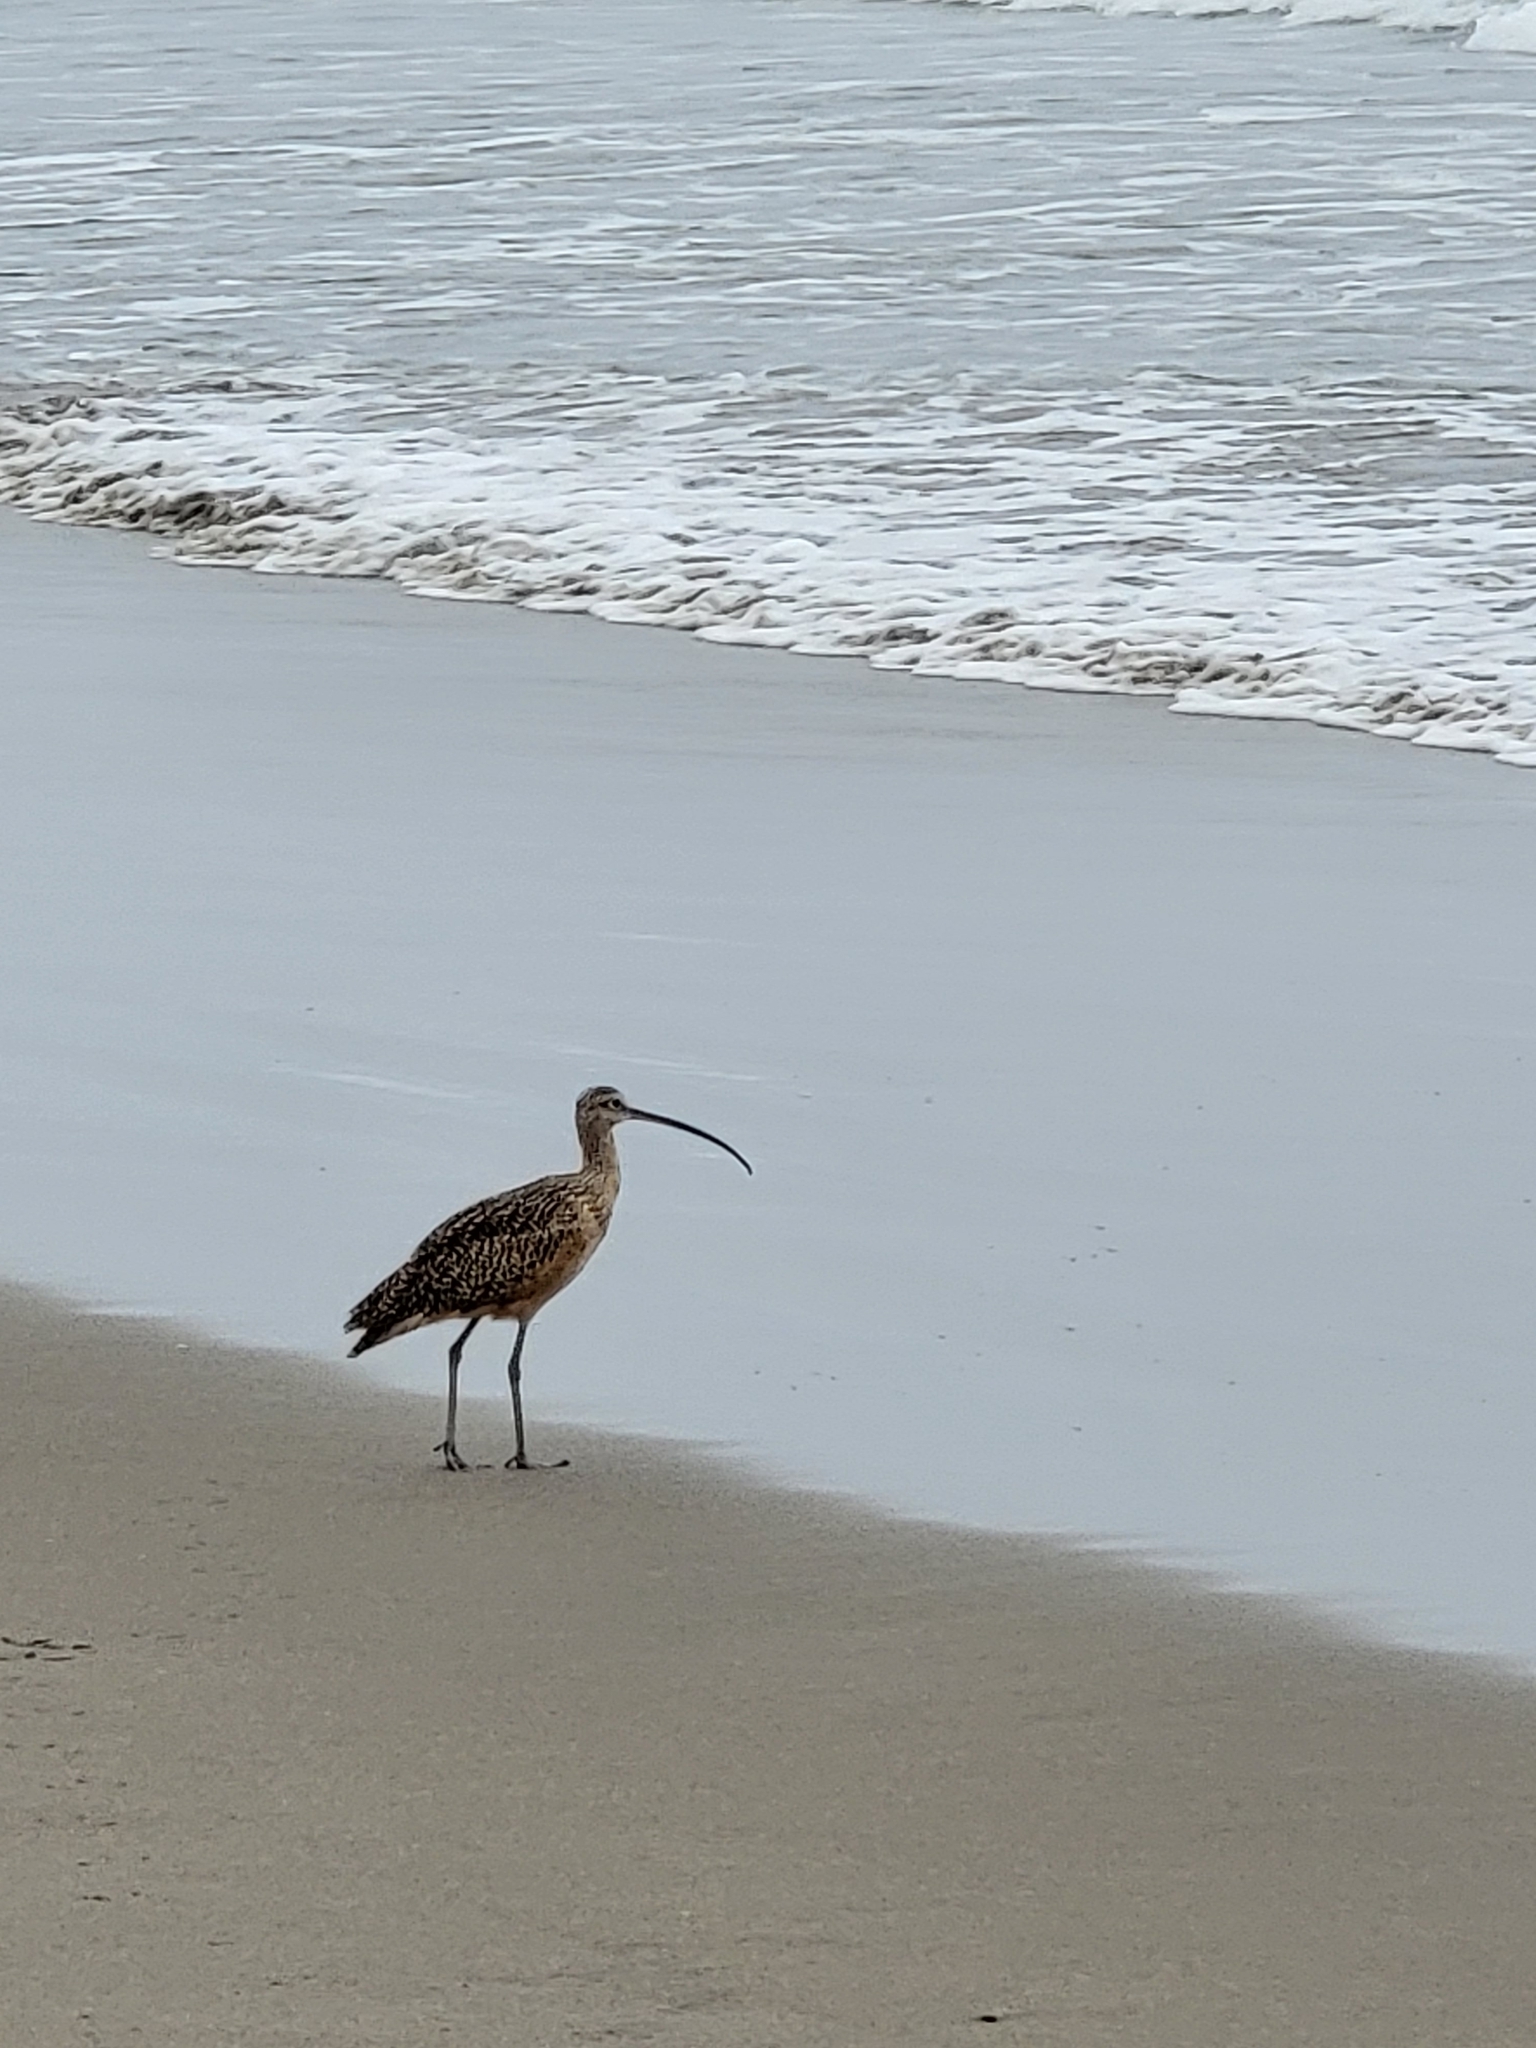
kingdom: Animalia
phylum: Chordata
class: Aves
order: Charadriiformes
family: Scolopacidae
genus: Numenius
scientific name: Numenius americanus
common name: Long-billed curlew
